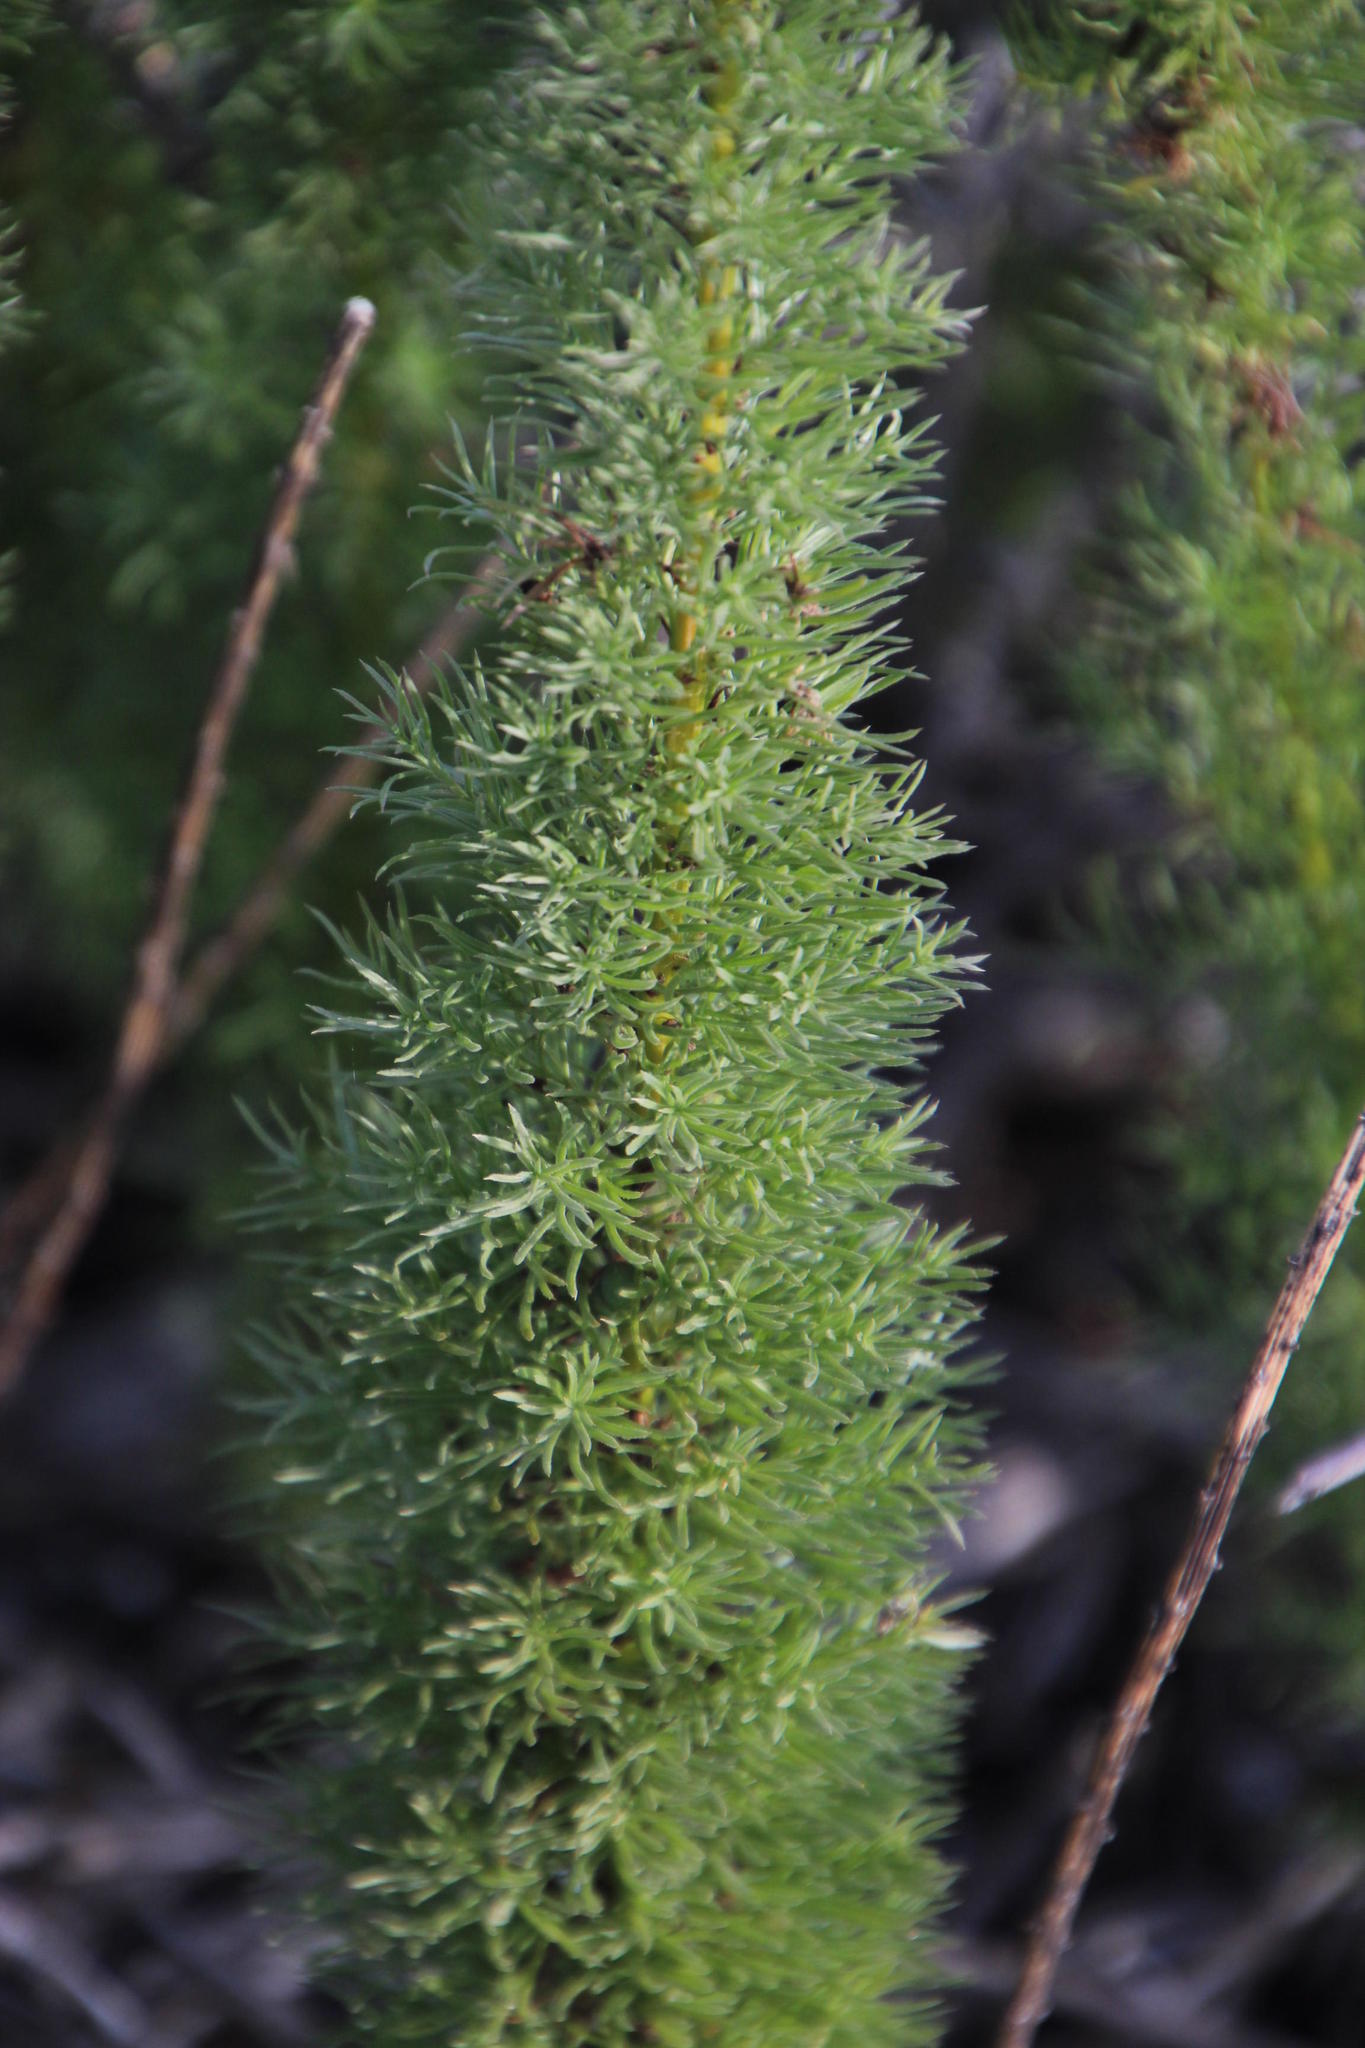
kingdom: Plantae
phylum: Tracheophyta
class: Liliopsida
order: Asparagales
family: Asparagaceae
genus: Asparagus
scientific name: Asparagus juniperoides
